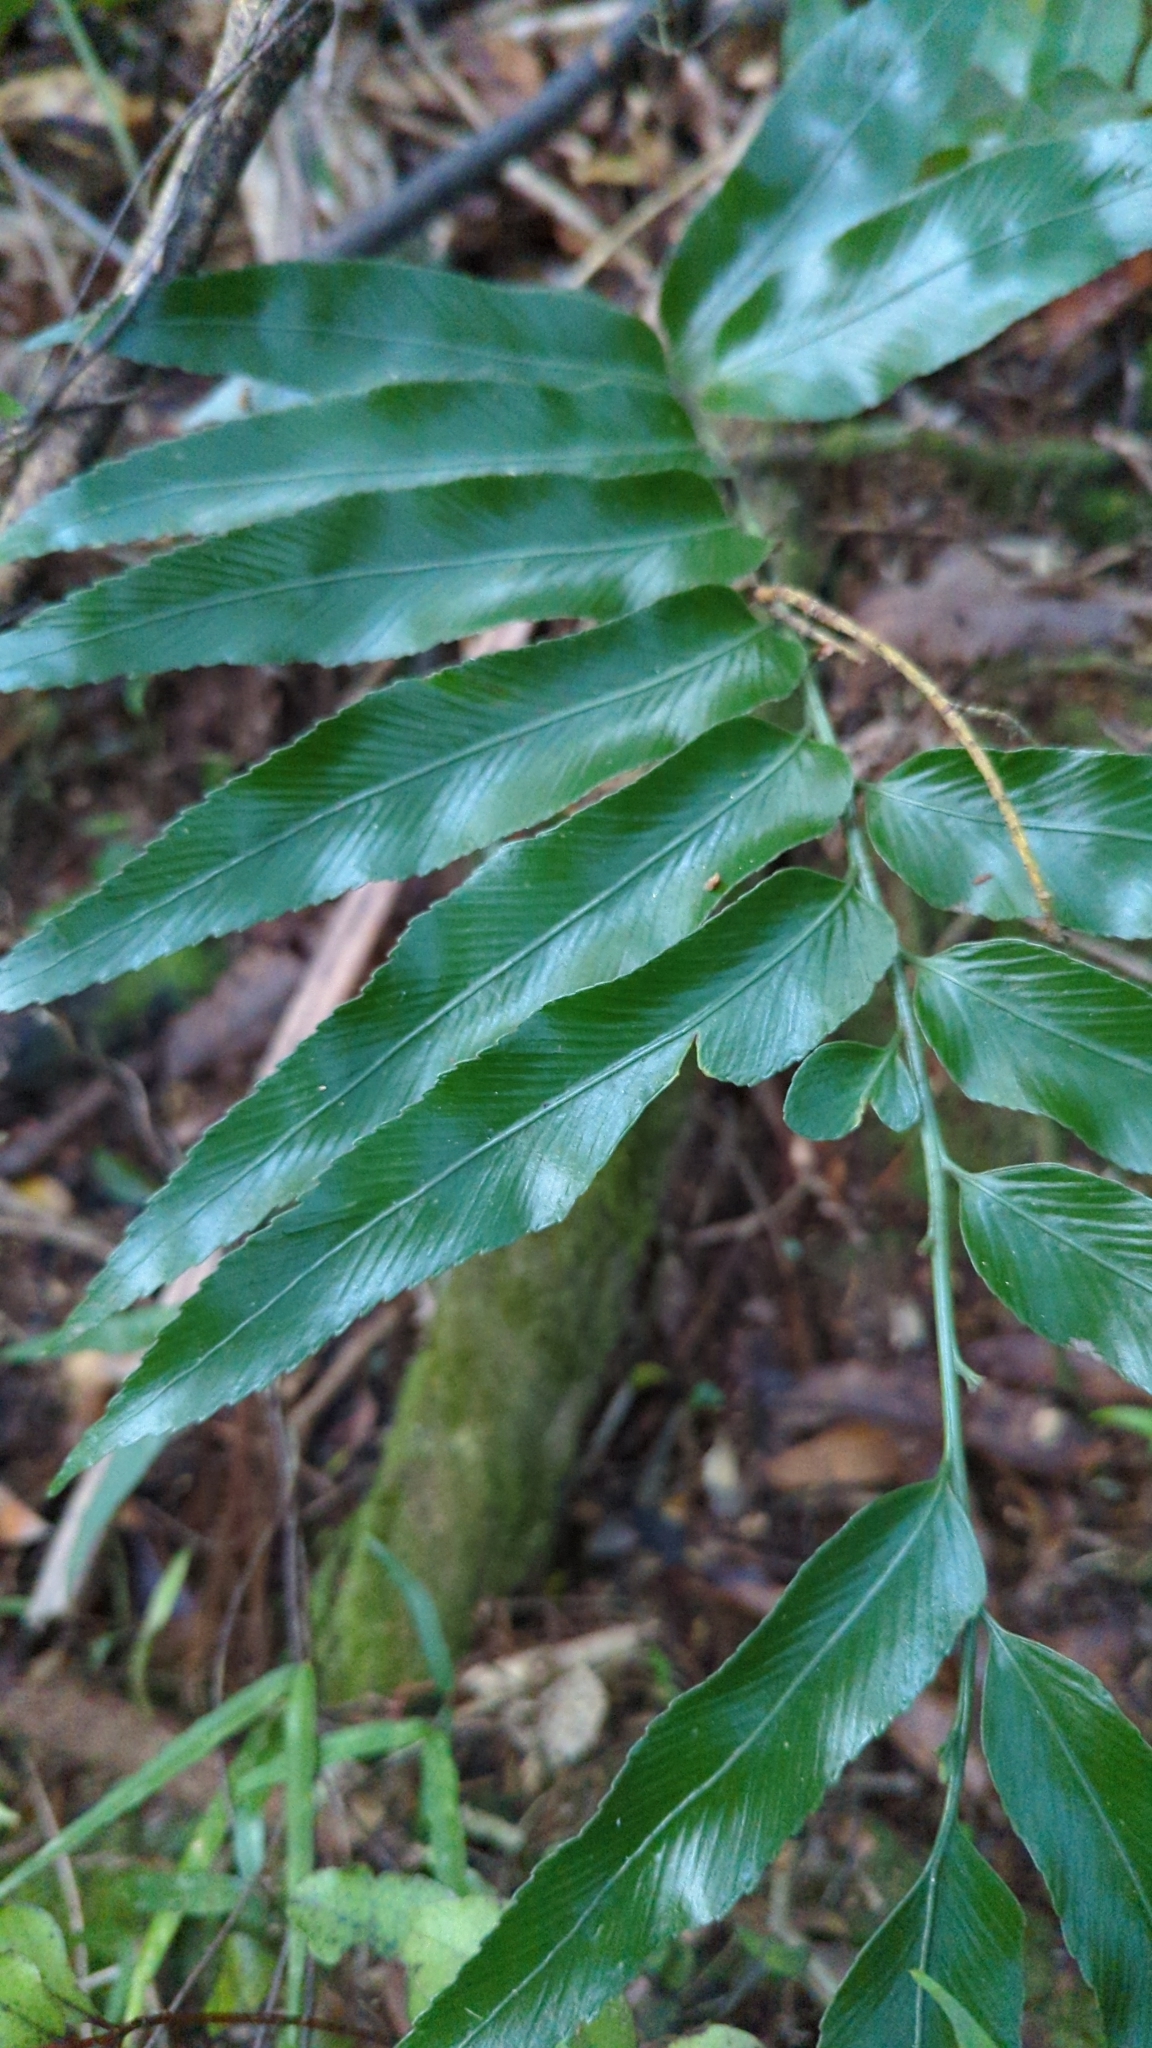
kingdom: Plantae
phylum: Tracheophyta
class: Polypodiopsida
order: Polypodiales
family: Aspleniaceae
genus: Asplenium
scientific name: Asplenium oblongifolium
